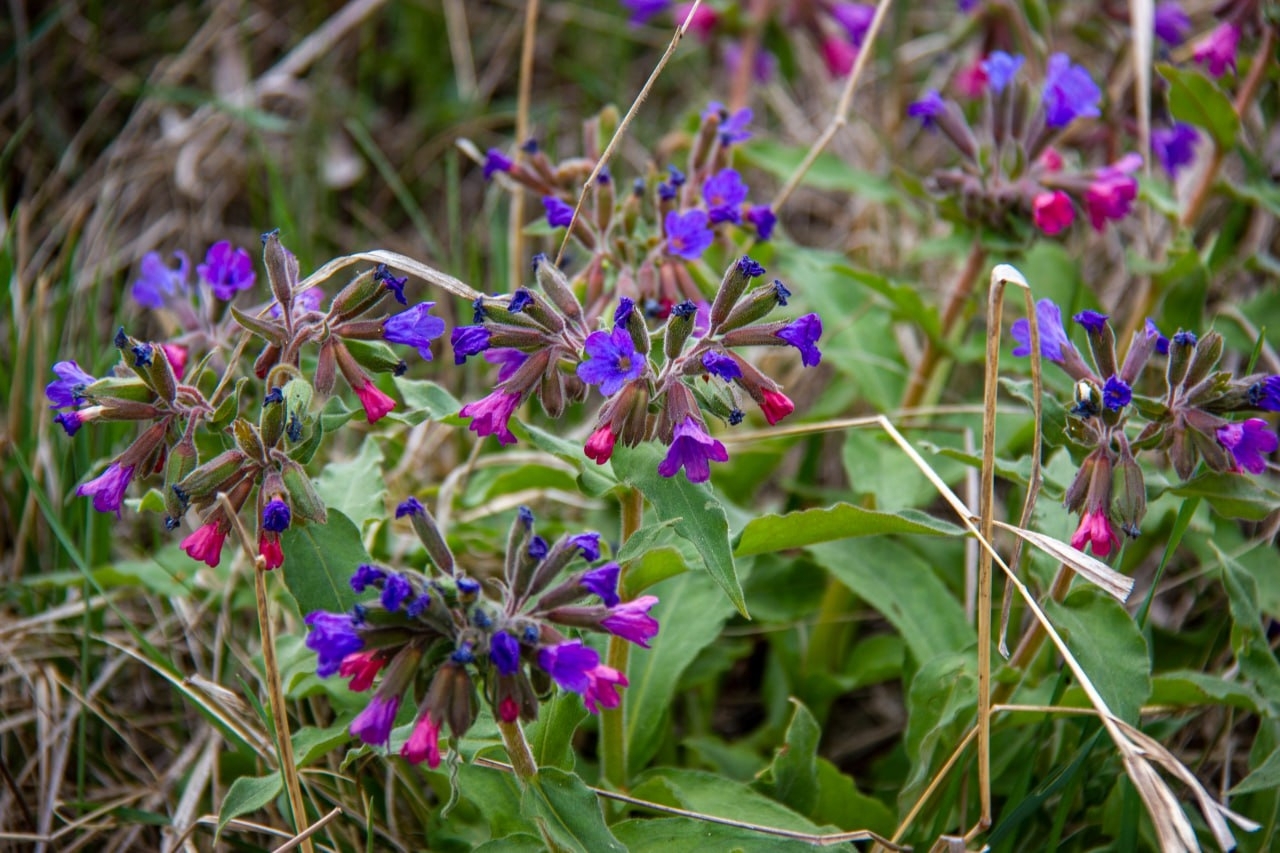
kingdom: Plantae
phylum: Tracheophyta
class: Magnoliopsida
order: Boraginales
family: Boraginaceae
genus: Pulmonaria
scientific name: Pulmonaria mollis
